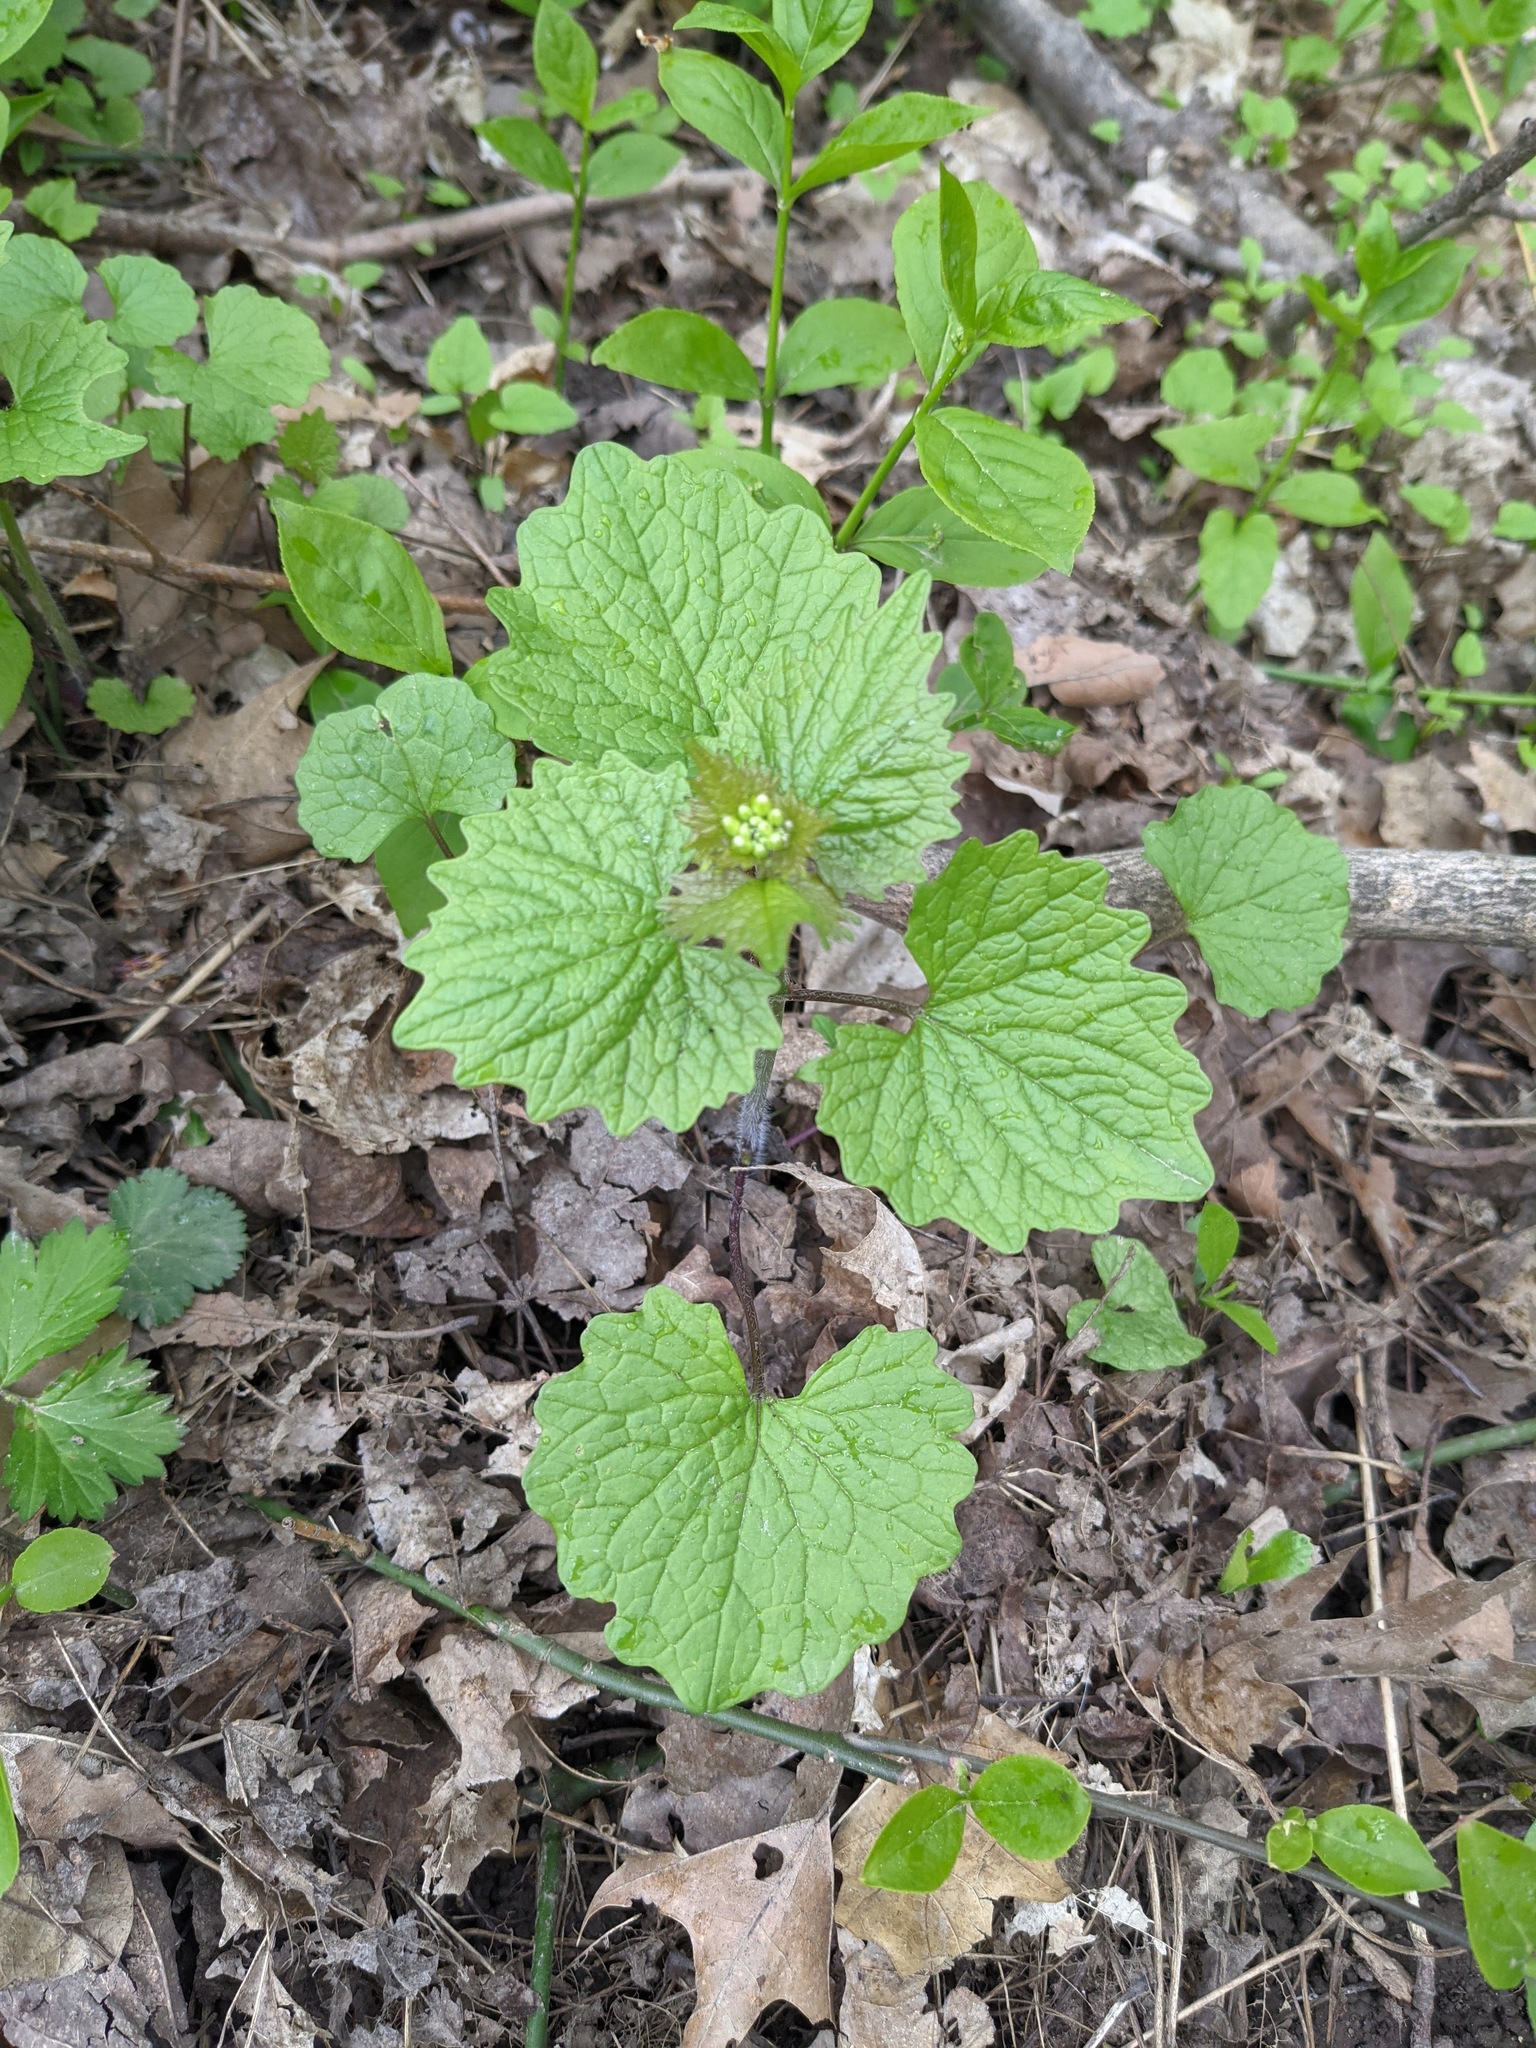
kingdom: Plantae
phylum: Tracheophyta
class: Magnoliopsida
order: Brassicales
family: Brassicaceae
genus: Alliaria
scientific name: Alliaria petiolata
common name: Garlic mustard
